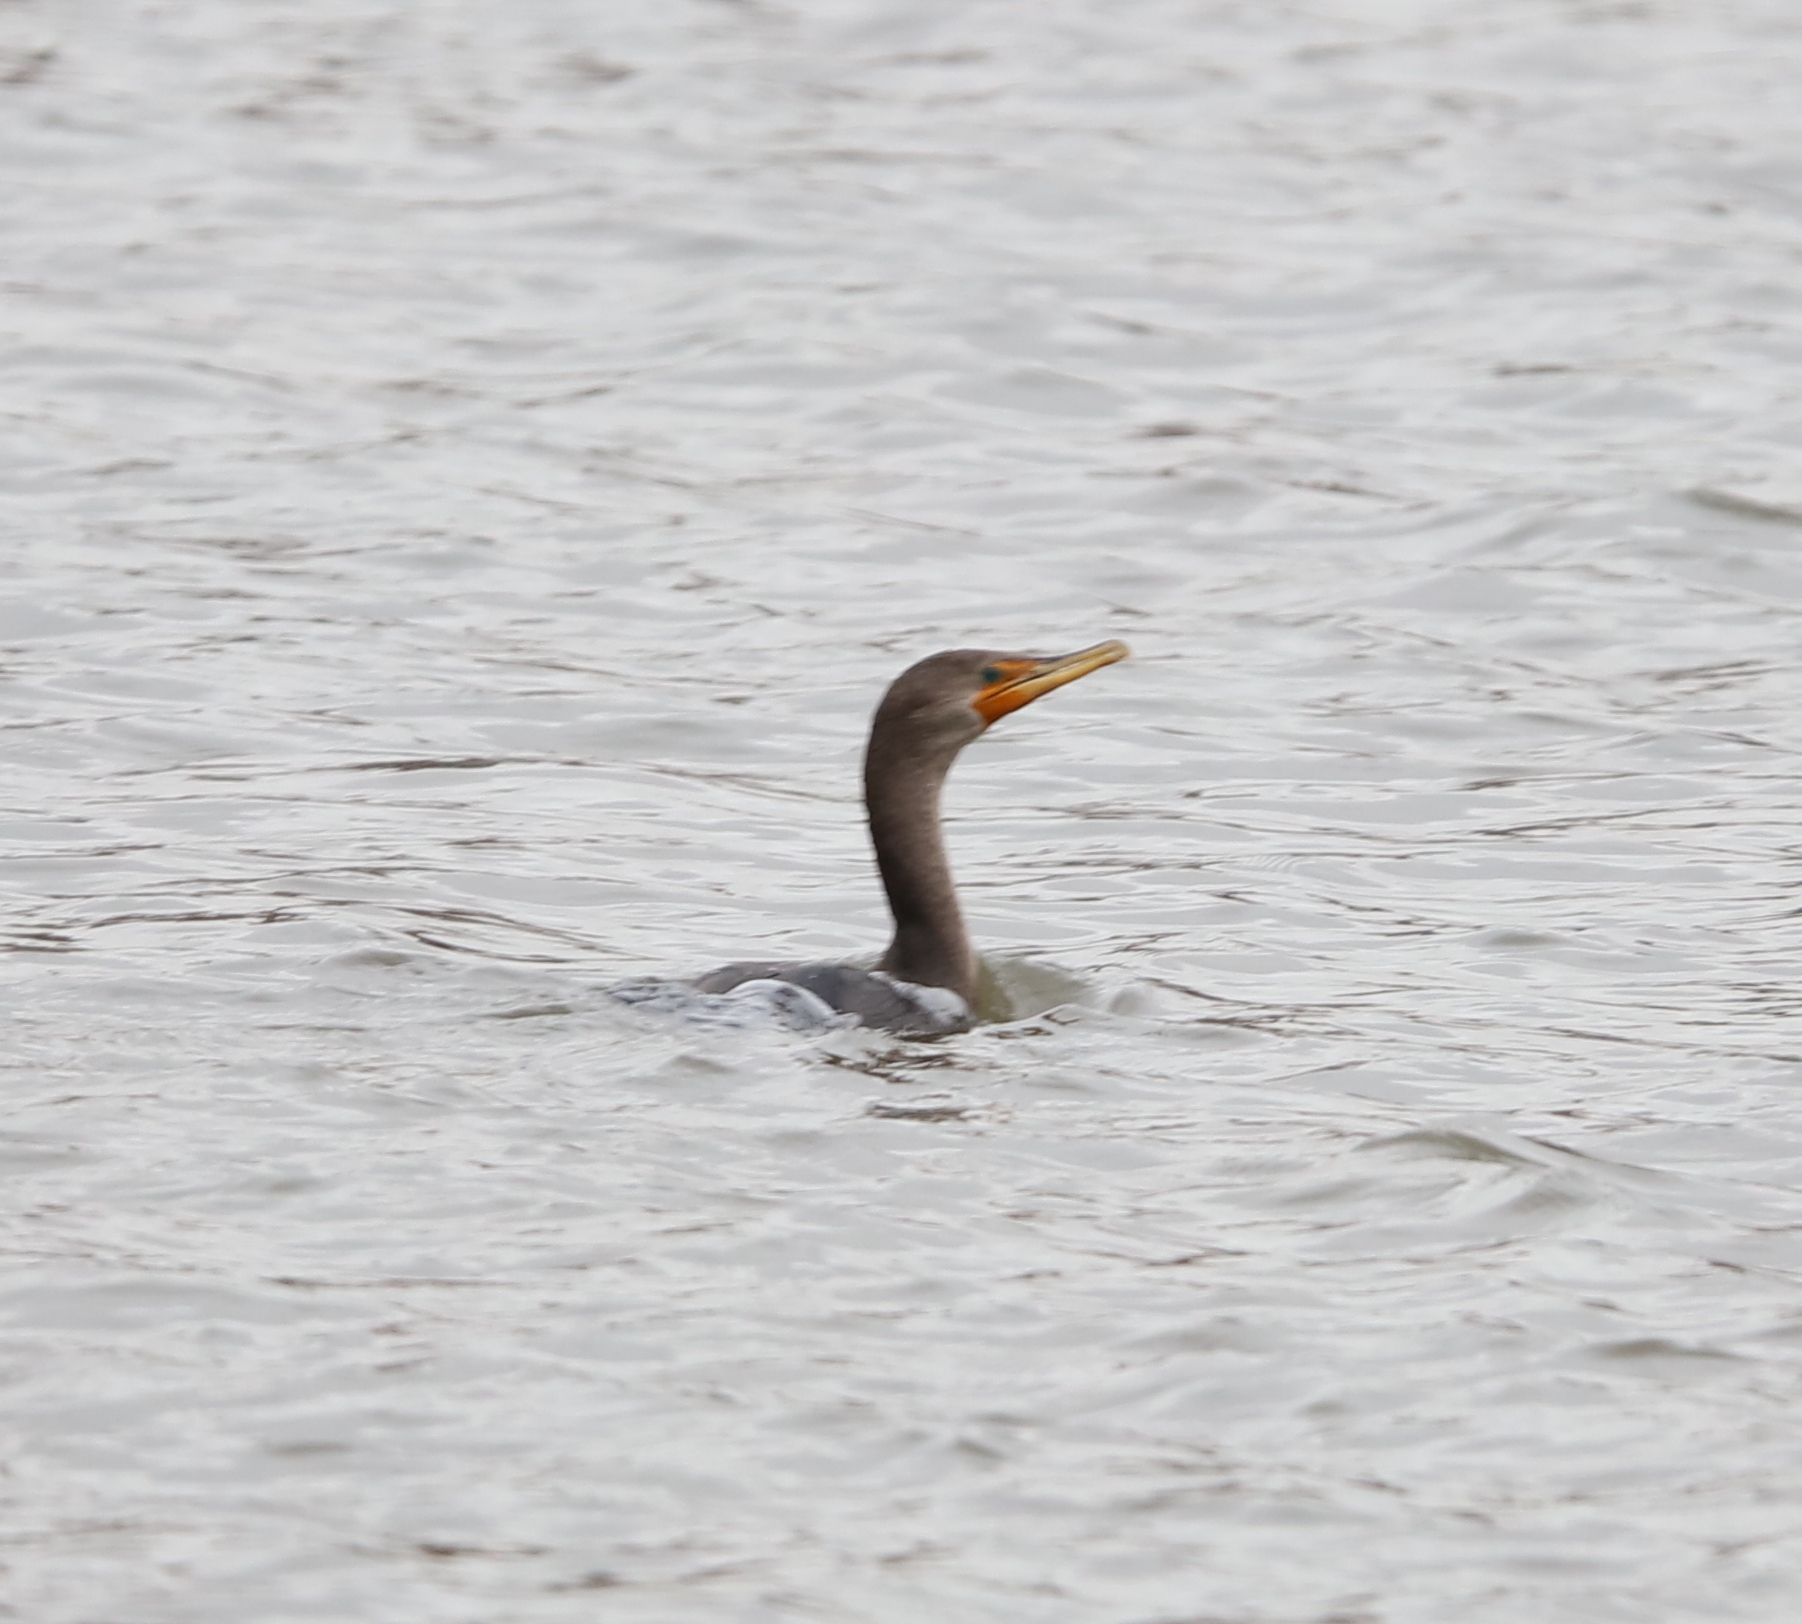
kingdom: Animalia
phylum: Chordata
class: Aves
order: Suliformes
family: Phalacrocoracidae
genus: Phalacrocorax
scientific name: Phalacrocorax auritus
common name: Double-crested cormorant
